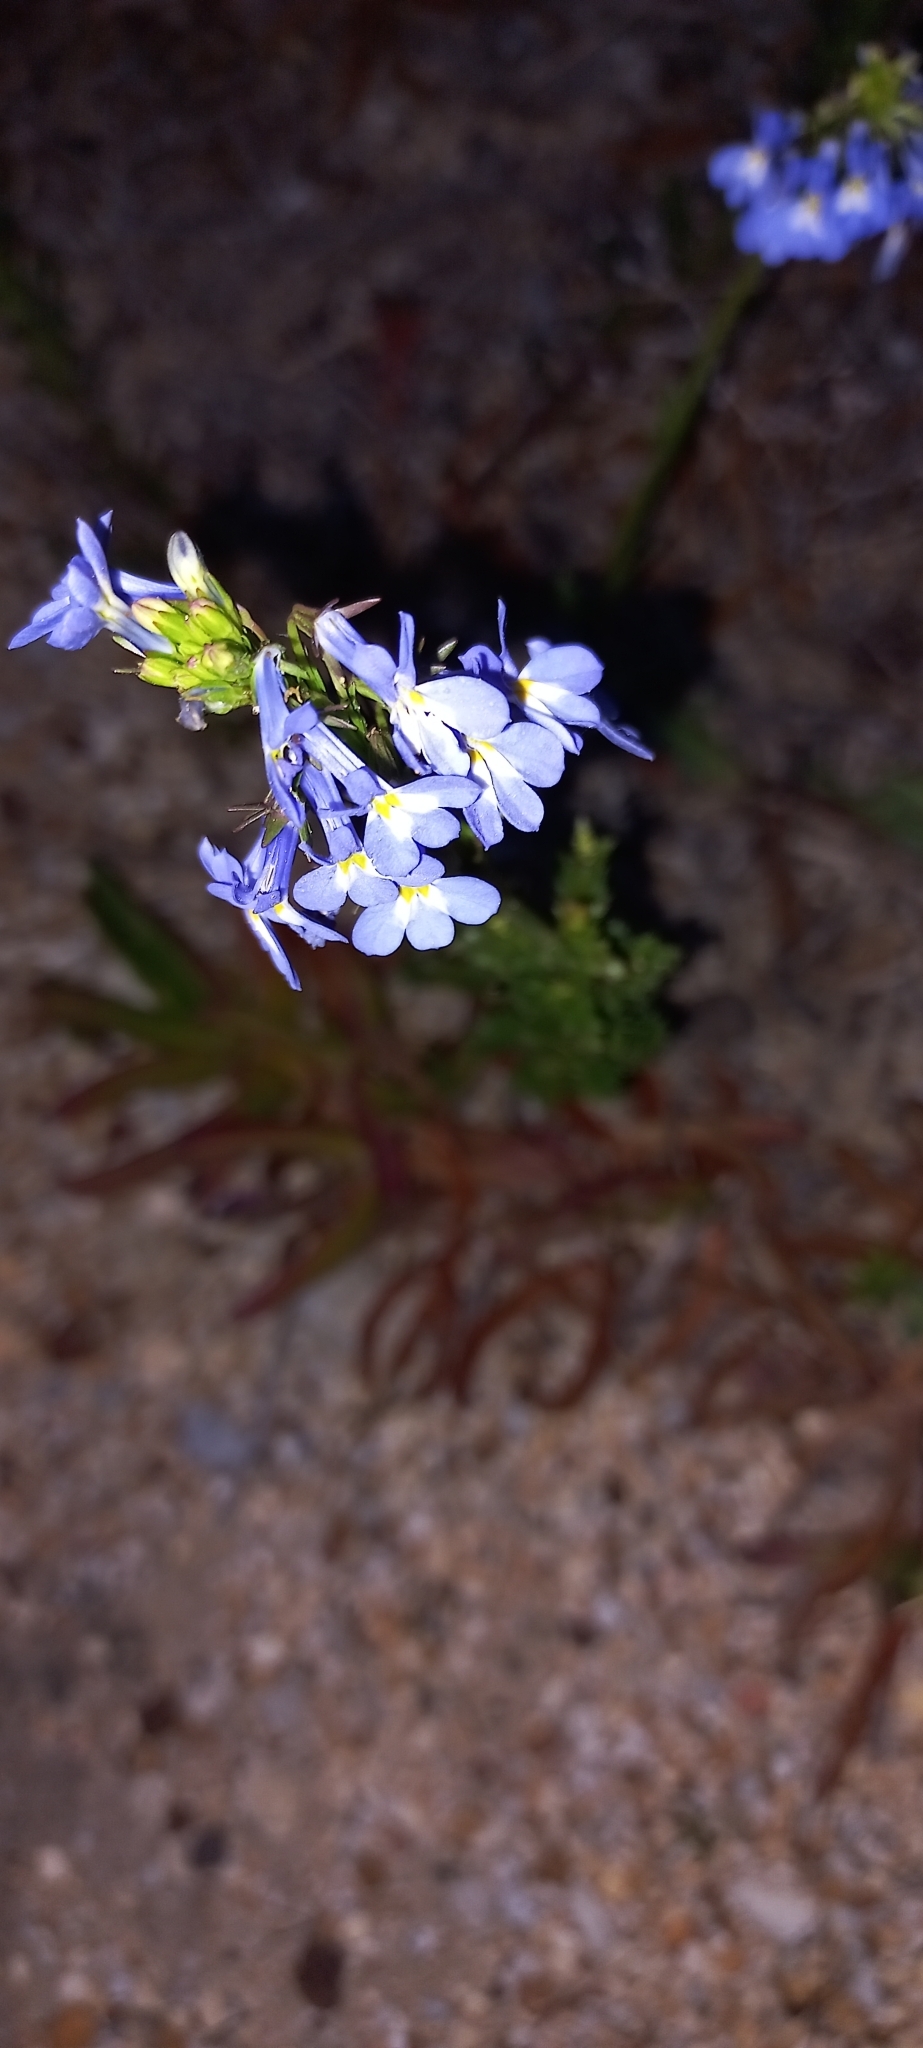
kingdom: Plantae
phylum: Tracheophyta
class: Magnoliopsida
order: Asterales
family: Campanulaceae
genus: Lobelia
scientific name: Lobelia comosa
